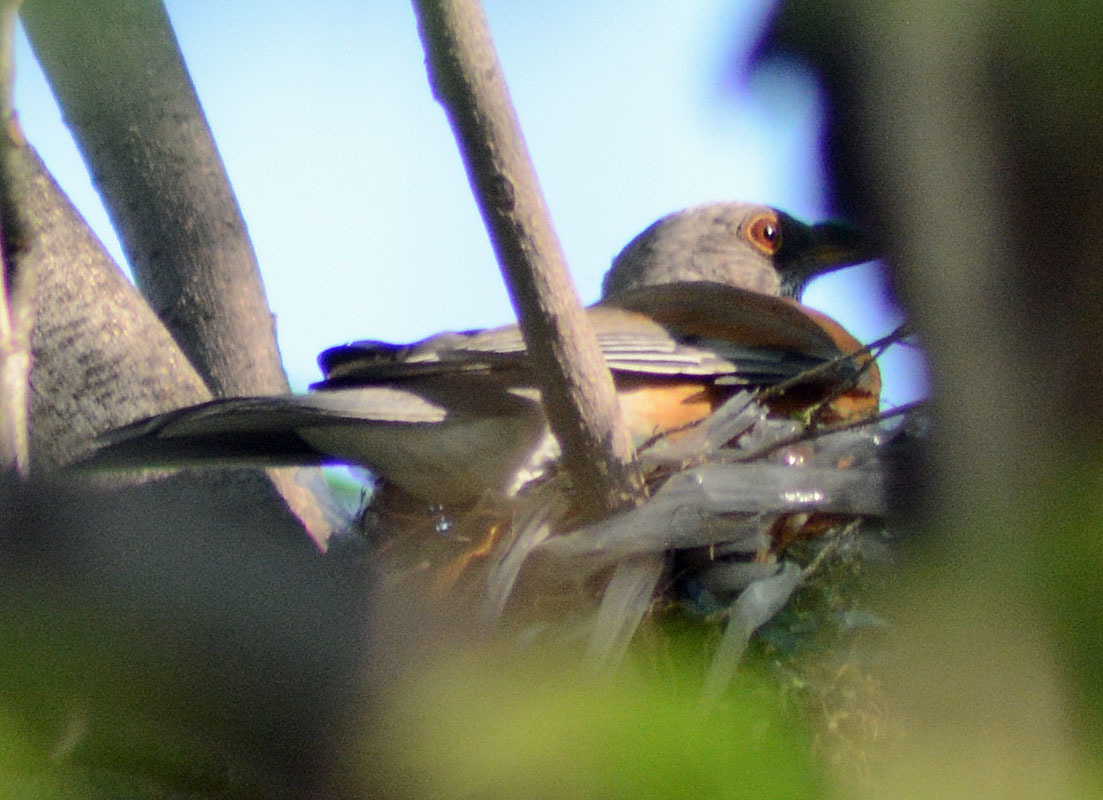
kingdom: Animalia
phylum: Chordata
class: Aves
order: Passeriformes
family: Turdidae
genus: Turdus
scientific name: Turdus rufopalliatus
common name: Rufous-backed robin
